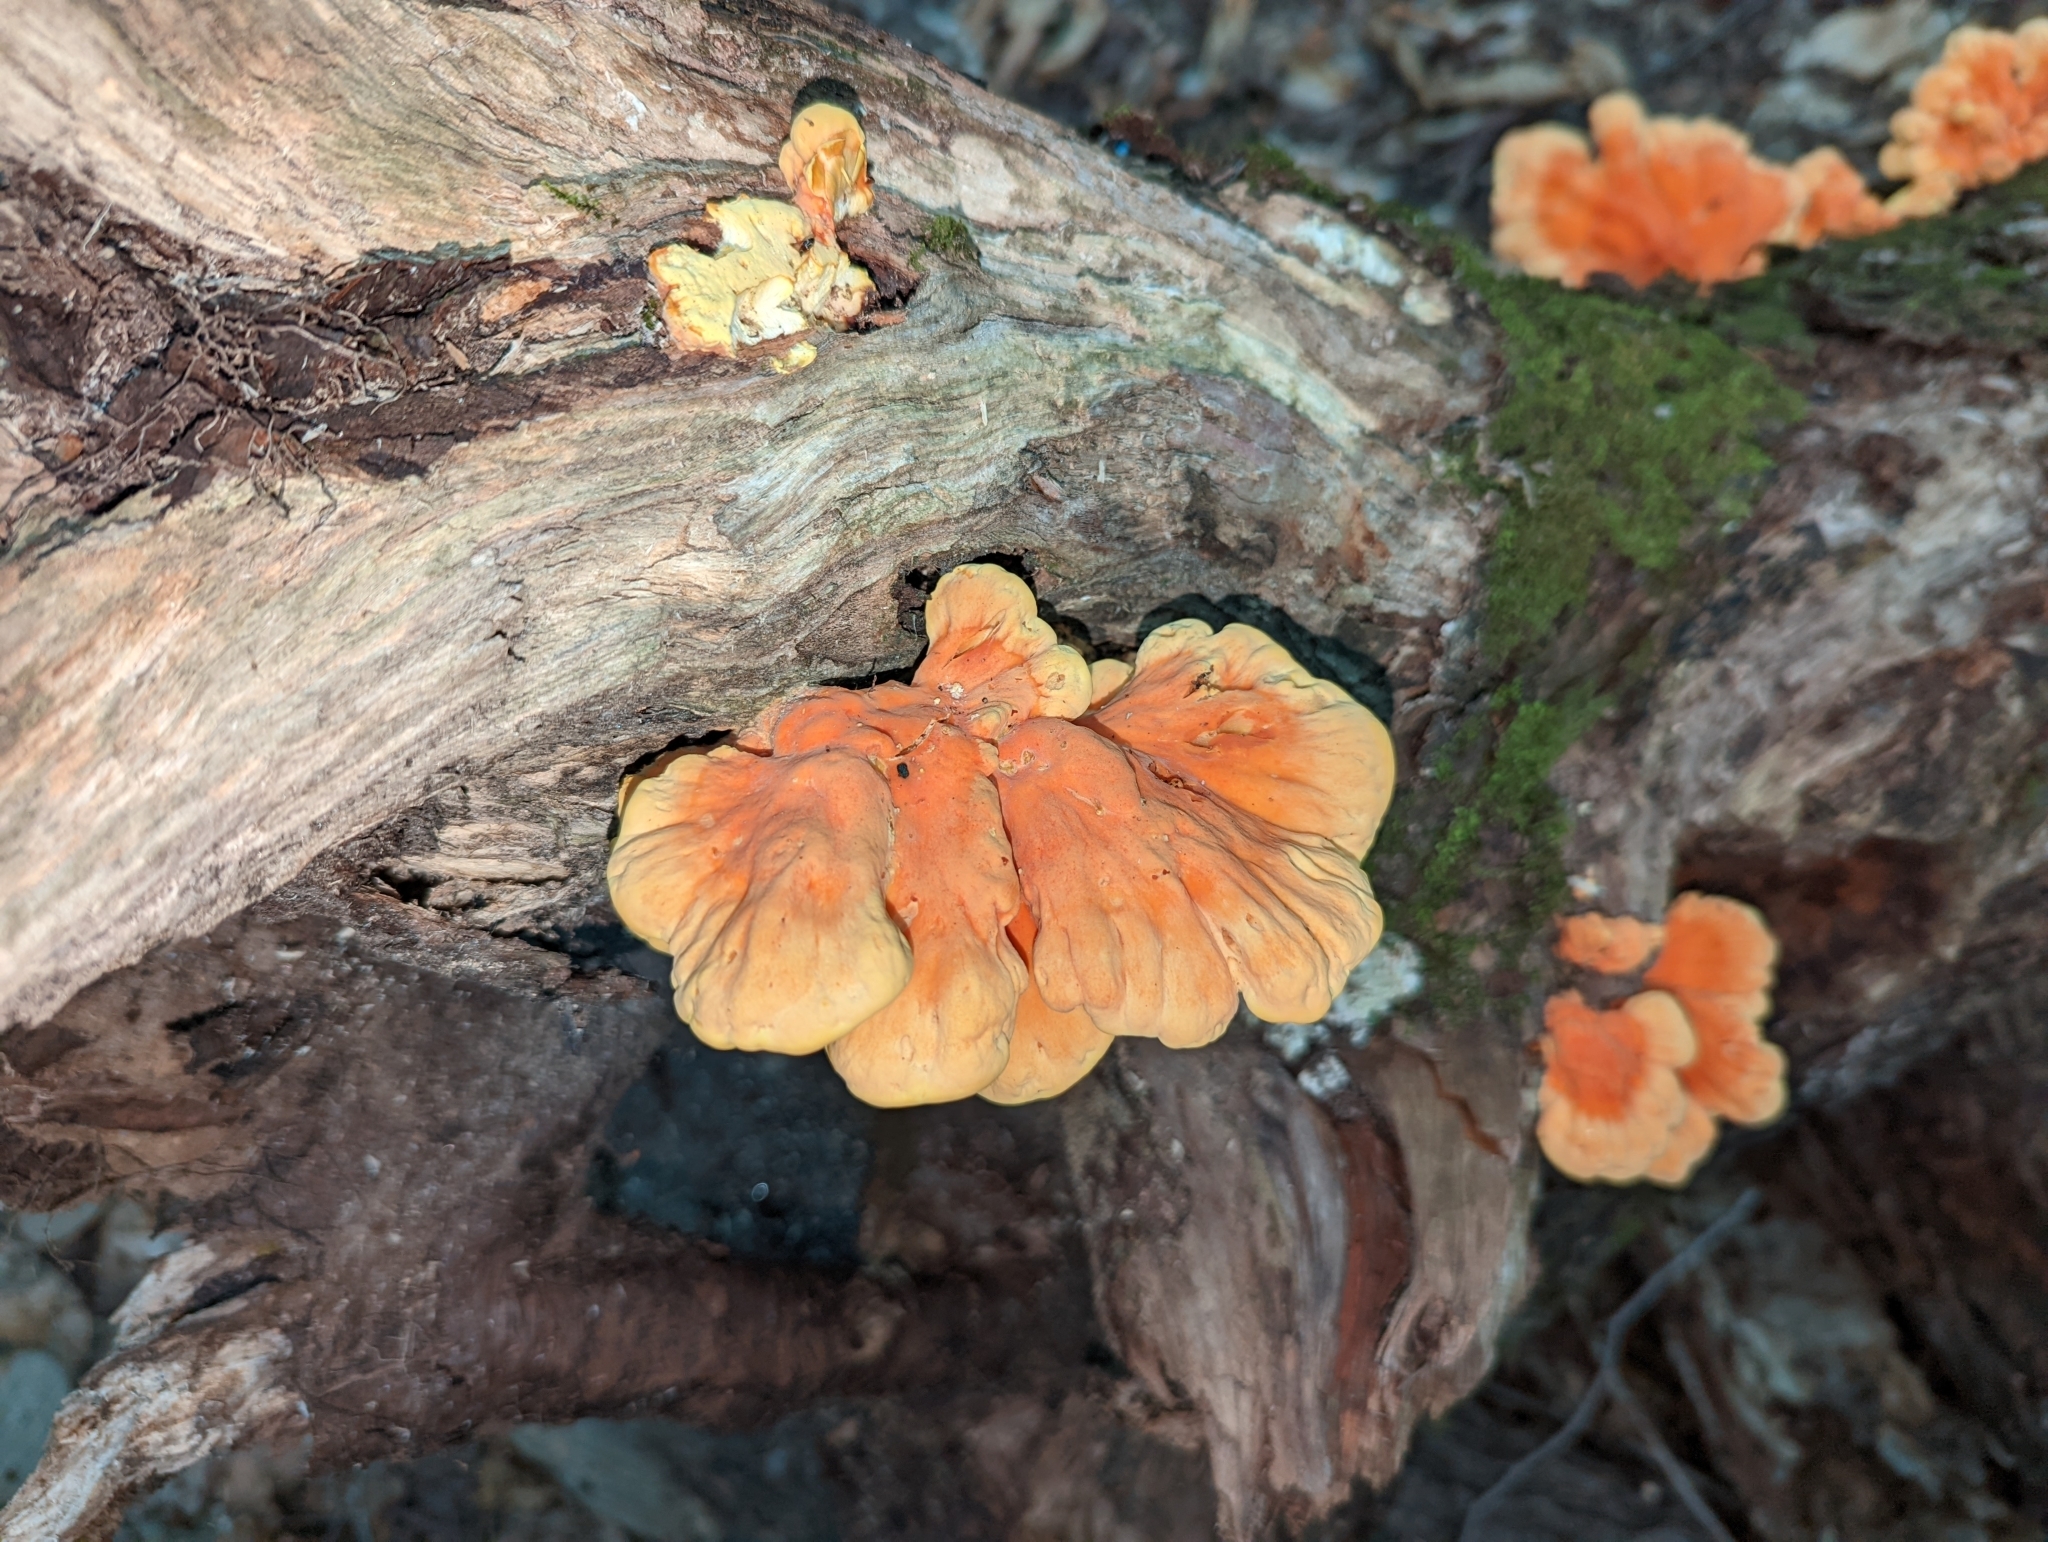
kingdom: Fungi
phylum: Basidiomycota
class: Agaricomycetes
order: Polyporales
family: Laetiporaceae
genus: Laetiporus
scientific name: Laetiporus sulphureus
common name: Chicken of the woods
